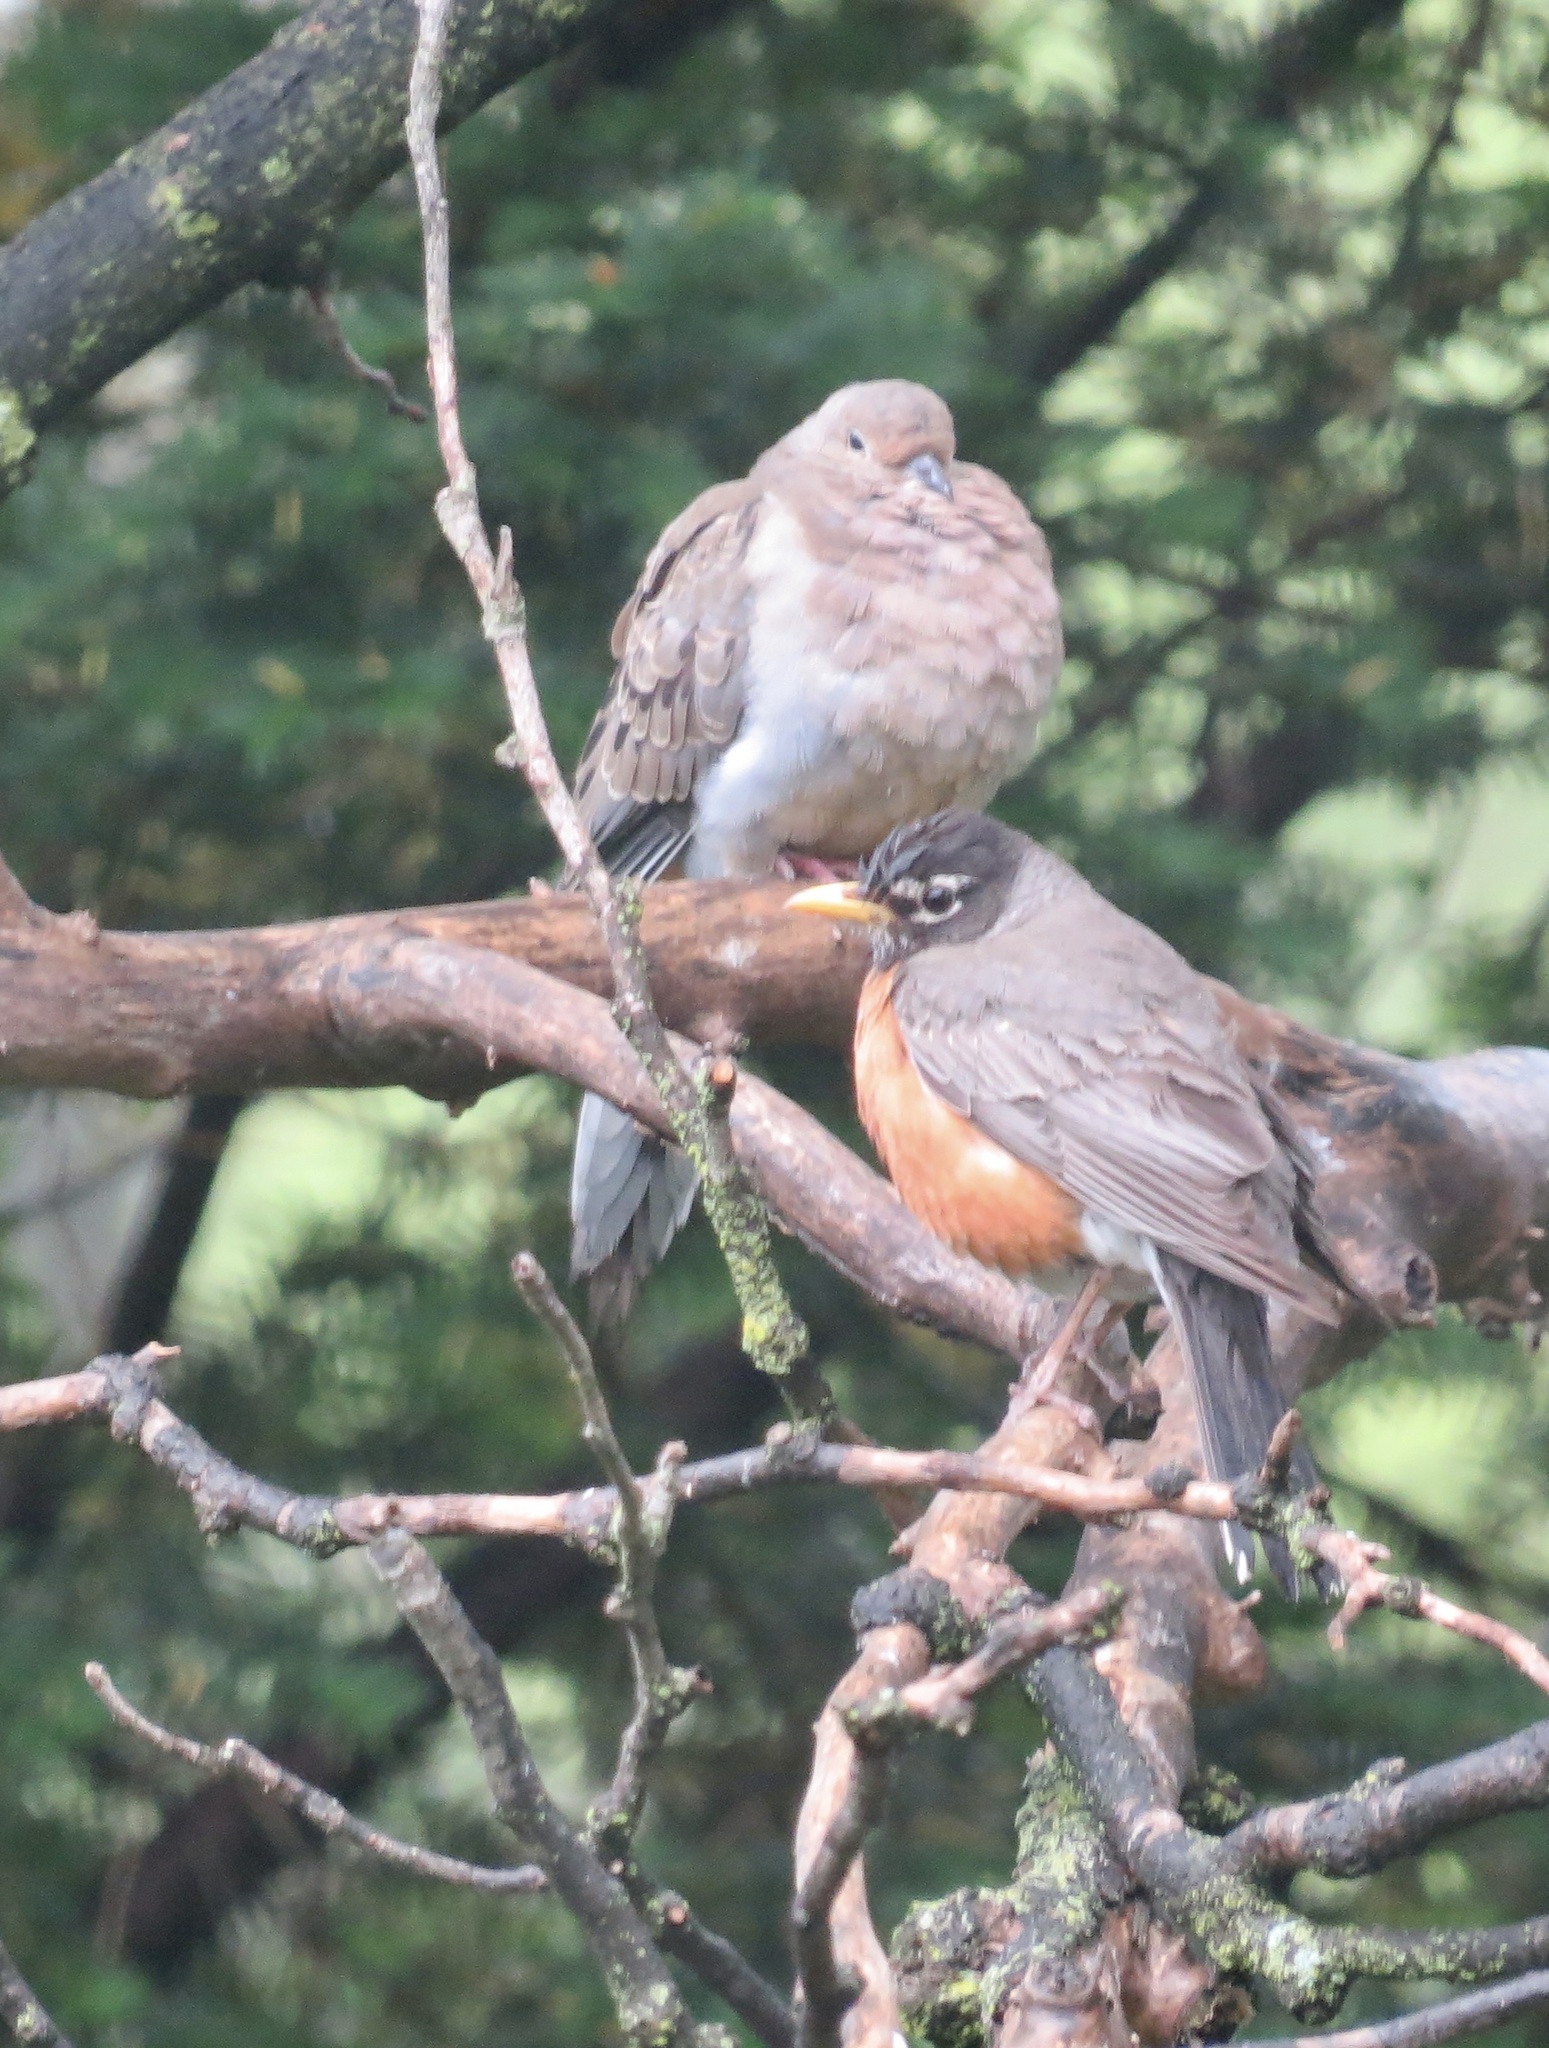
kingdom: Animalia
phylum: Chordata
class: Aves
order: Passeriformes
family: Turdidae
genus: Turdus
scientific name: Turdus migratorius
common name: American robin
